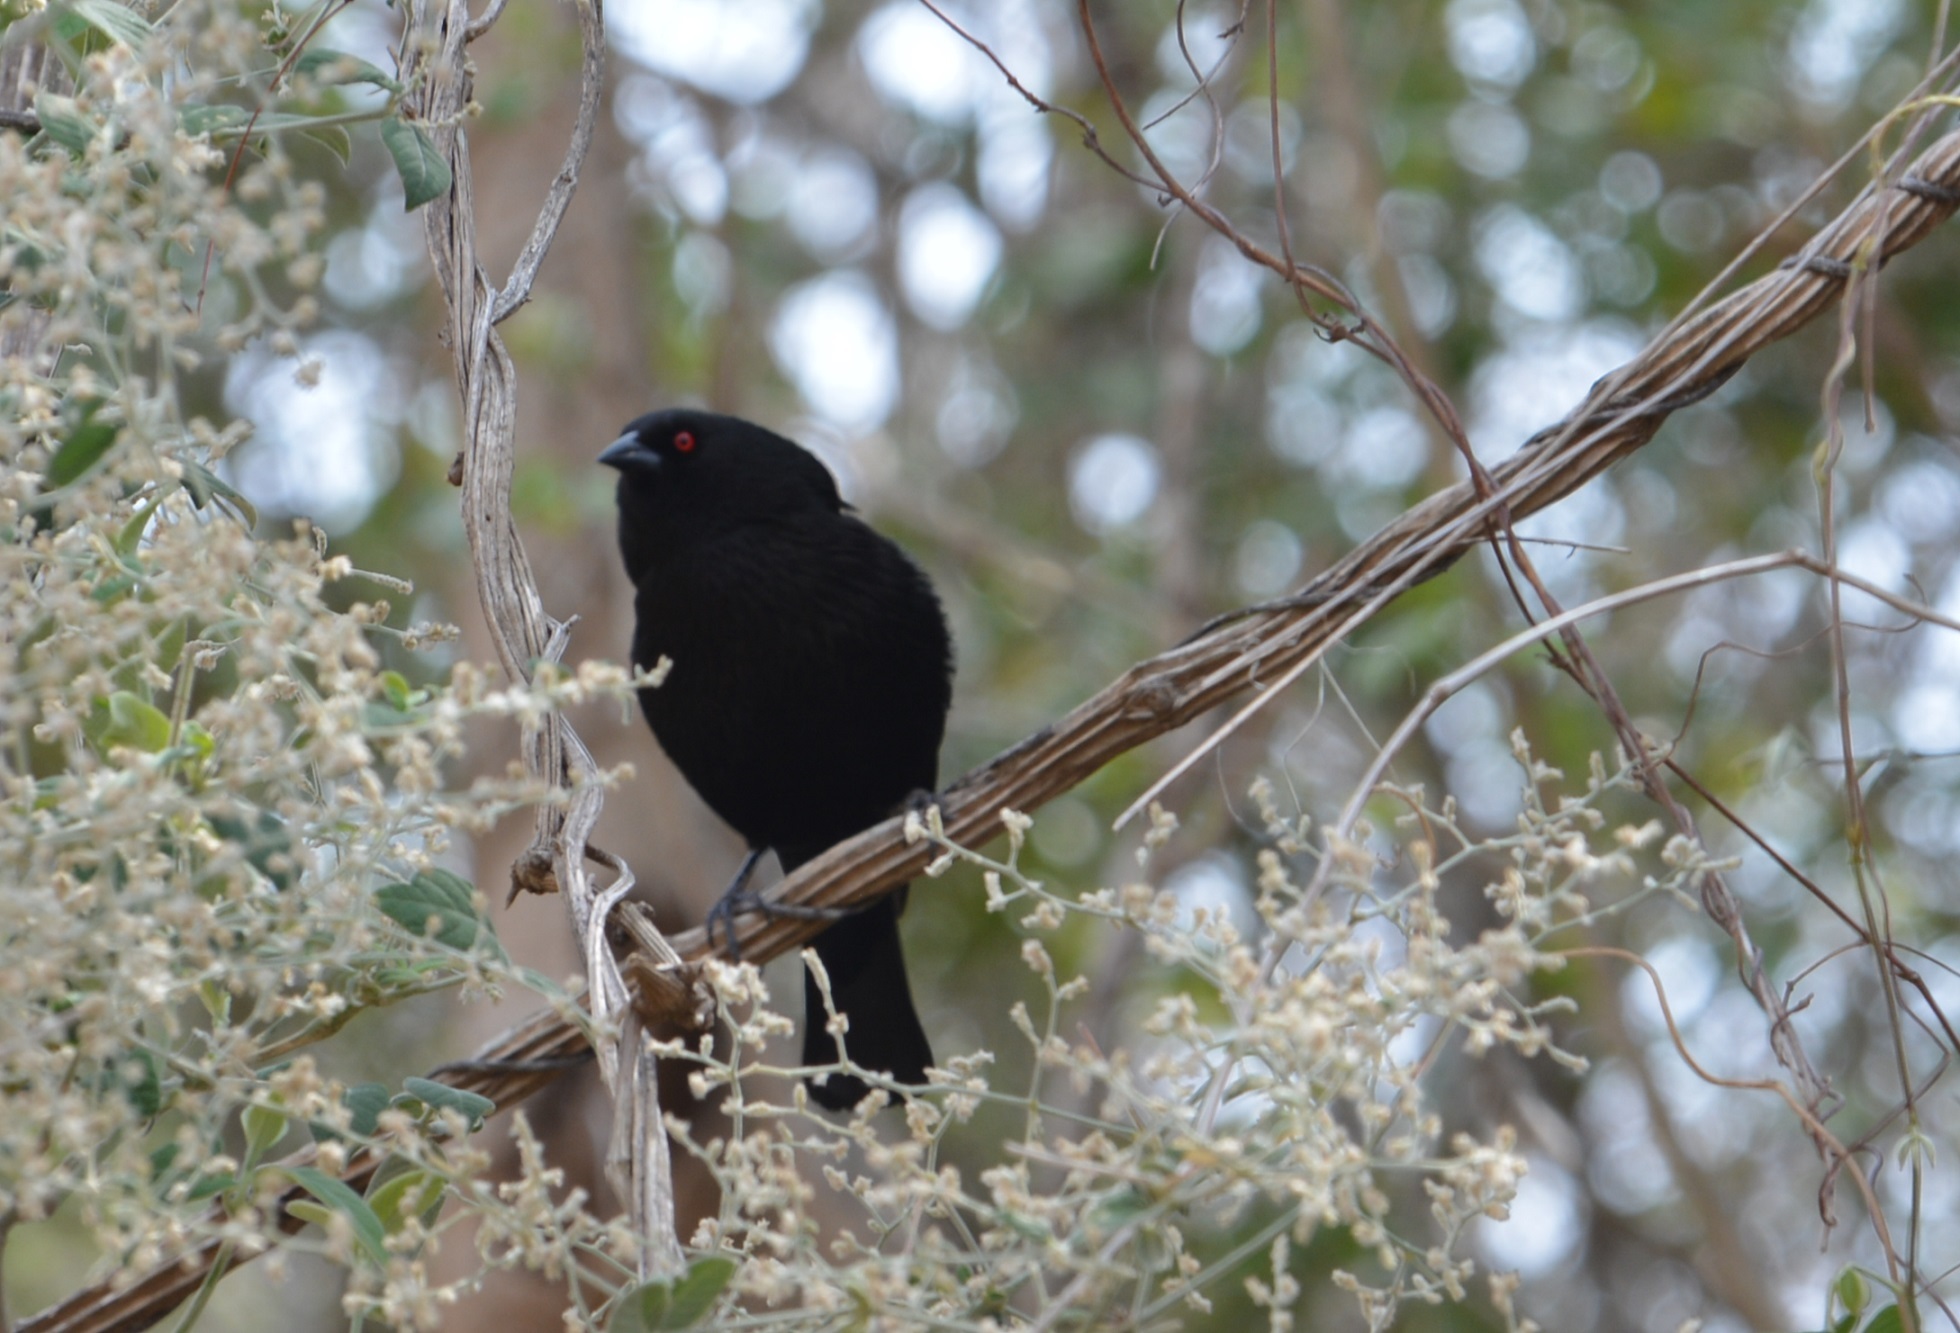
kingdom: Animalia
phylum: Chordata
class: Aves
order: Passeriformes
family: Icteridae
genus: Molothrus
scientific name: Molothrus aeneus
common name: Bronzed cowbird
